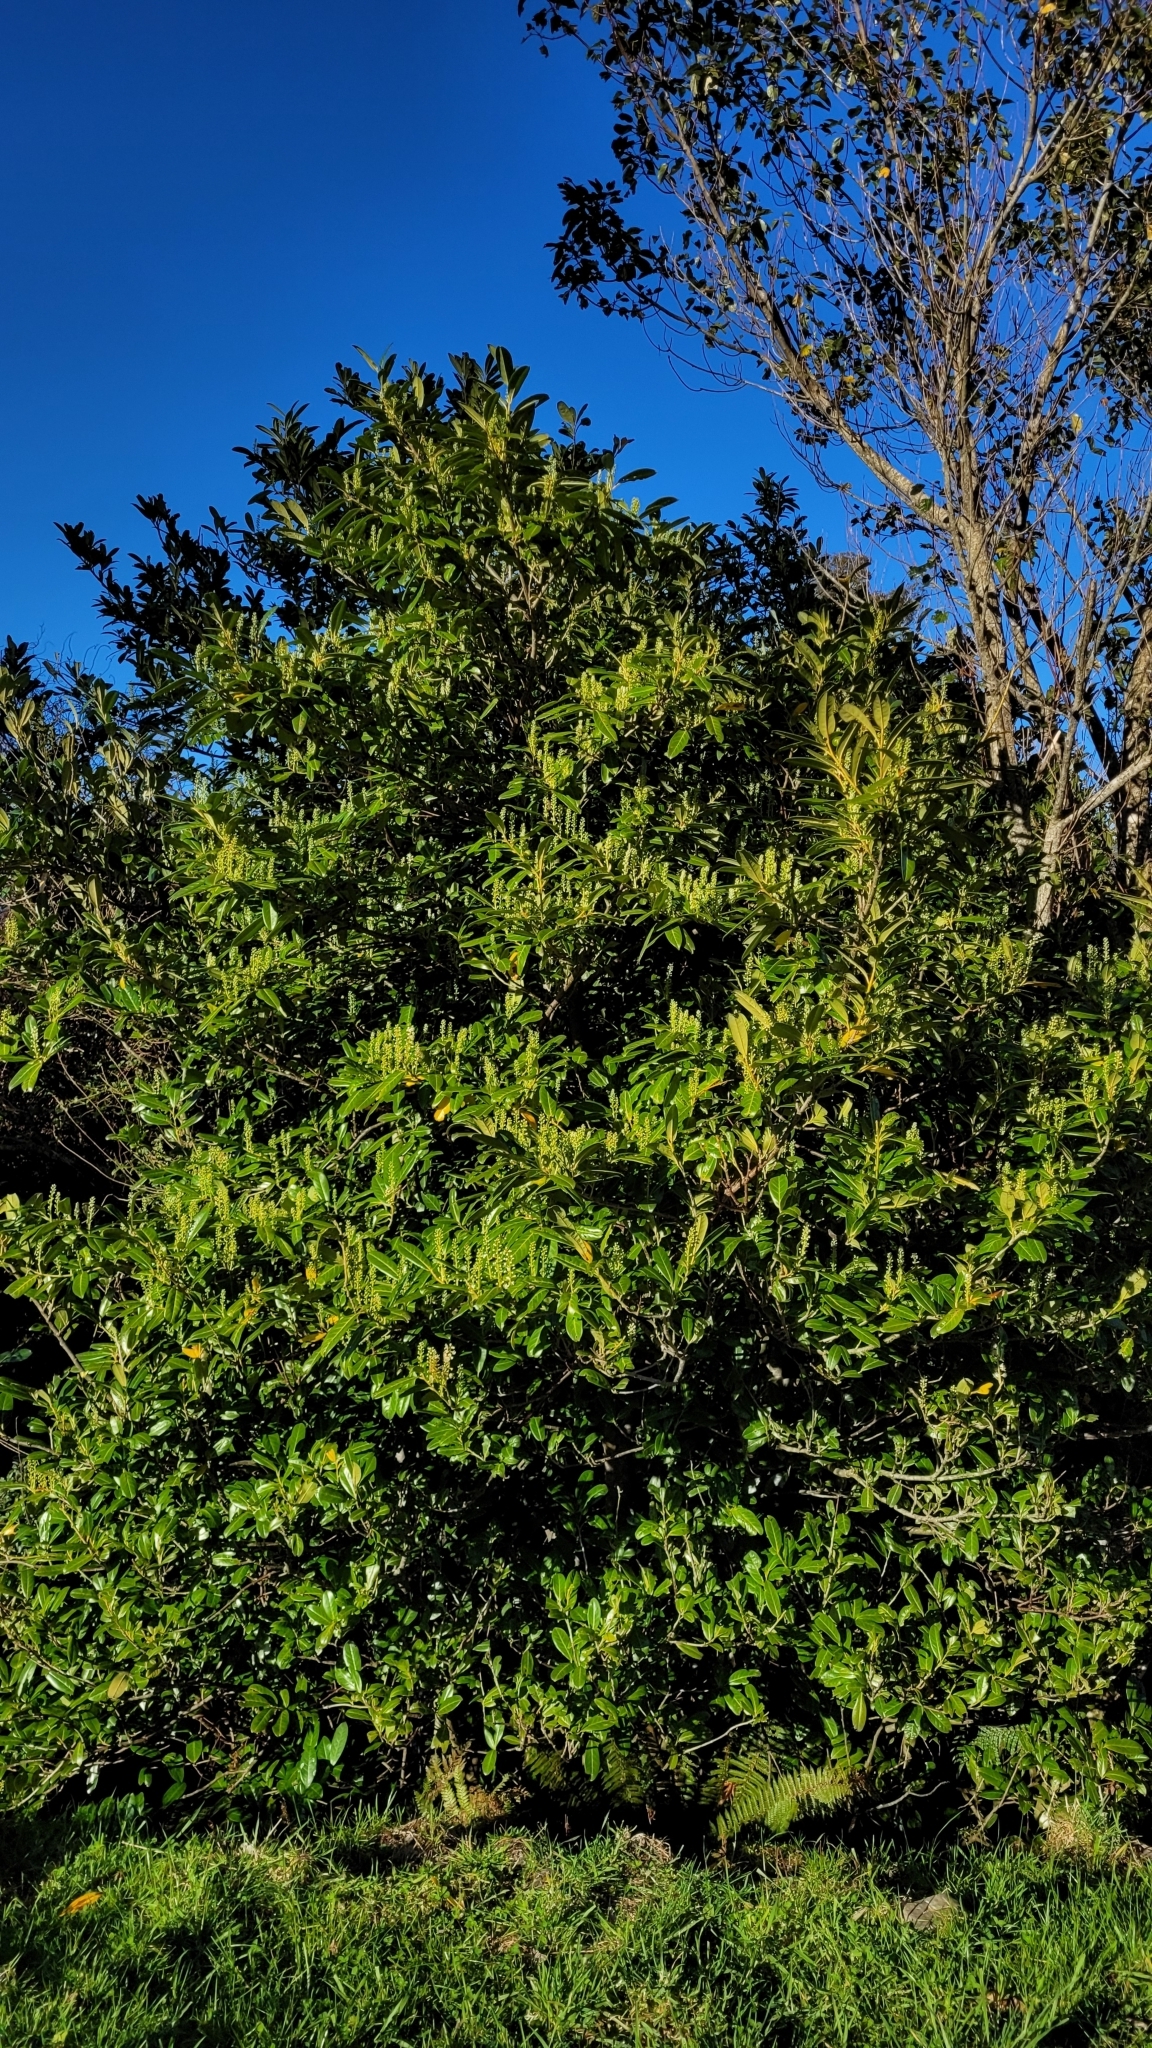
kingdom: Plantae
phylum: Tracheophyta
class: Magnoliopsida
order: Rosales
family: Rosaceae
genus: Prunus
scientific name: Prunus laurocerasus
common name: Cherry laurel
